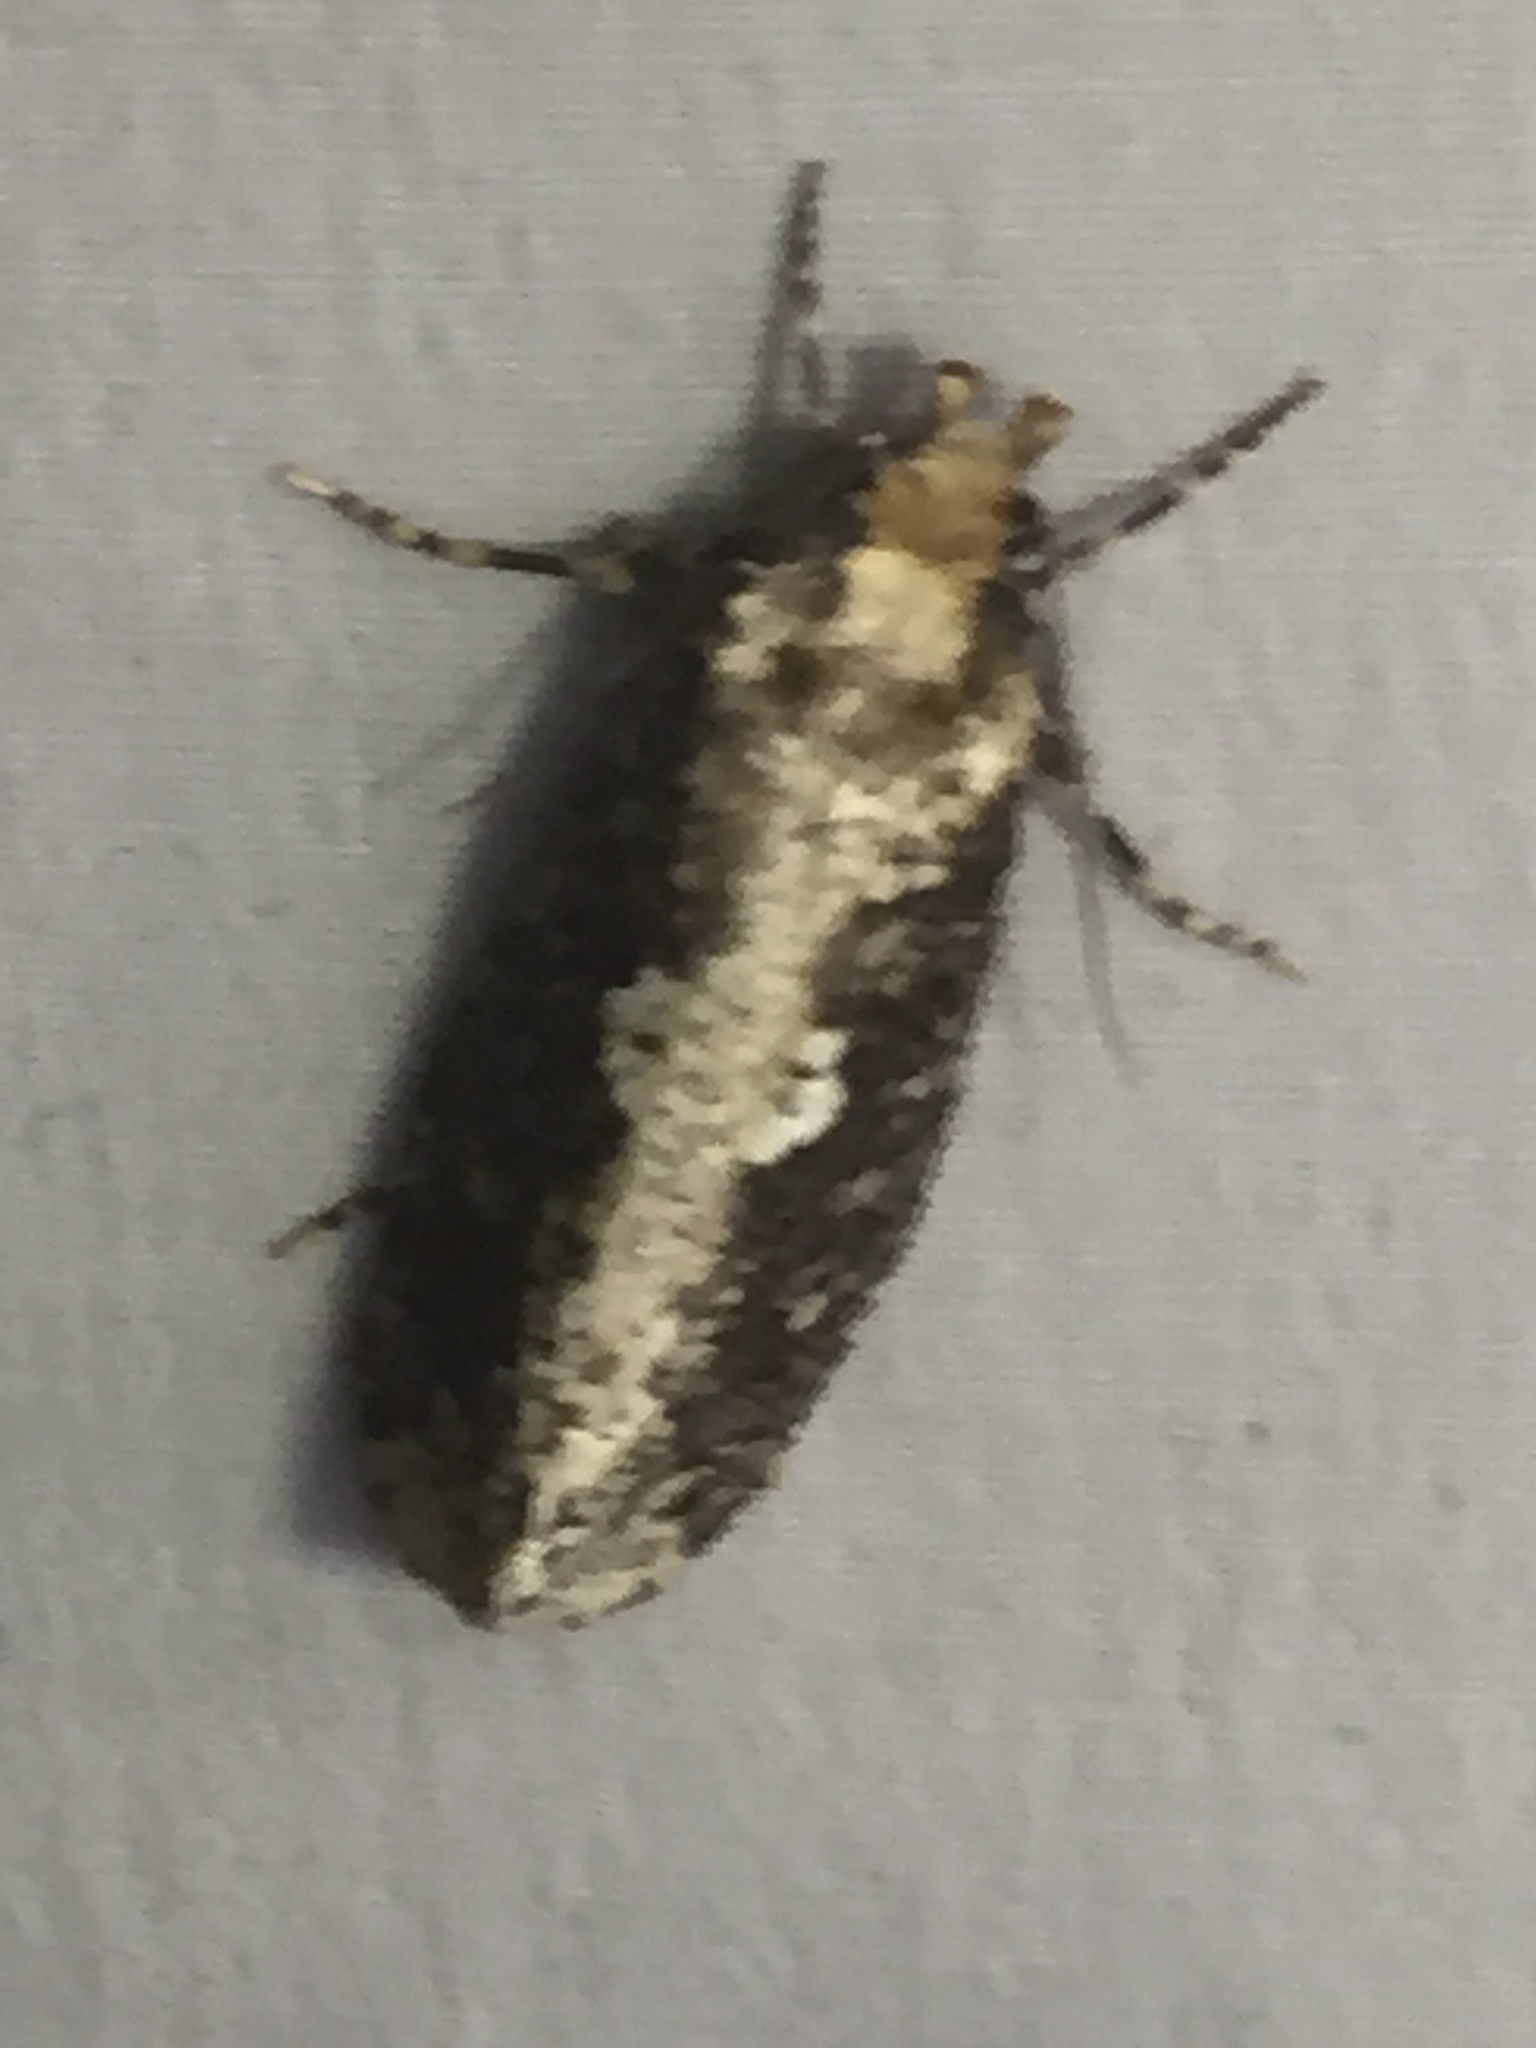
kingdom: Animalia
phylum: Arthropoda
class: Insecta
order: Lepidoptera
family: Tineidae
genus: Scardia
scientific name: Scardia boletella
